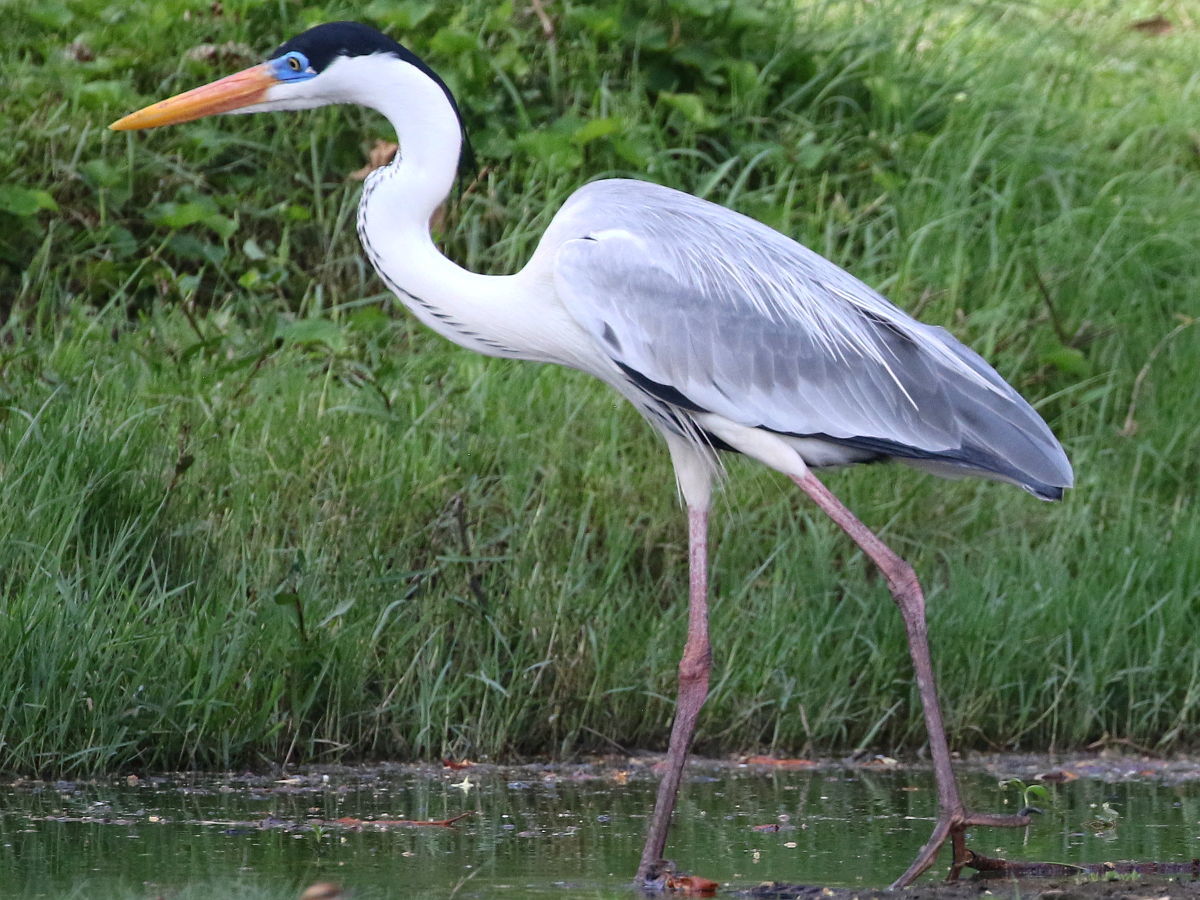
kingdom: Animalia
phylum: Chordata
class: Aves
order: Pelecaniformes
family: Ardeidae
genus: Ardea
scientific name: Ardea cocoi
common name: Cocoi heron
